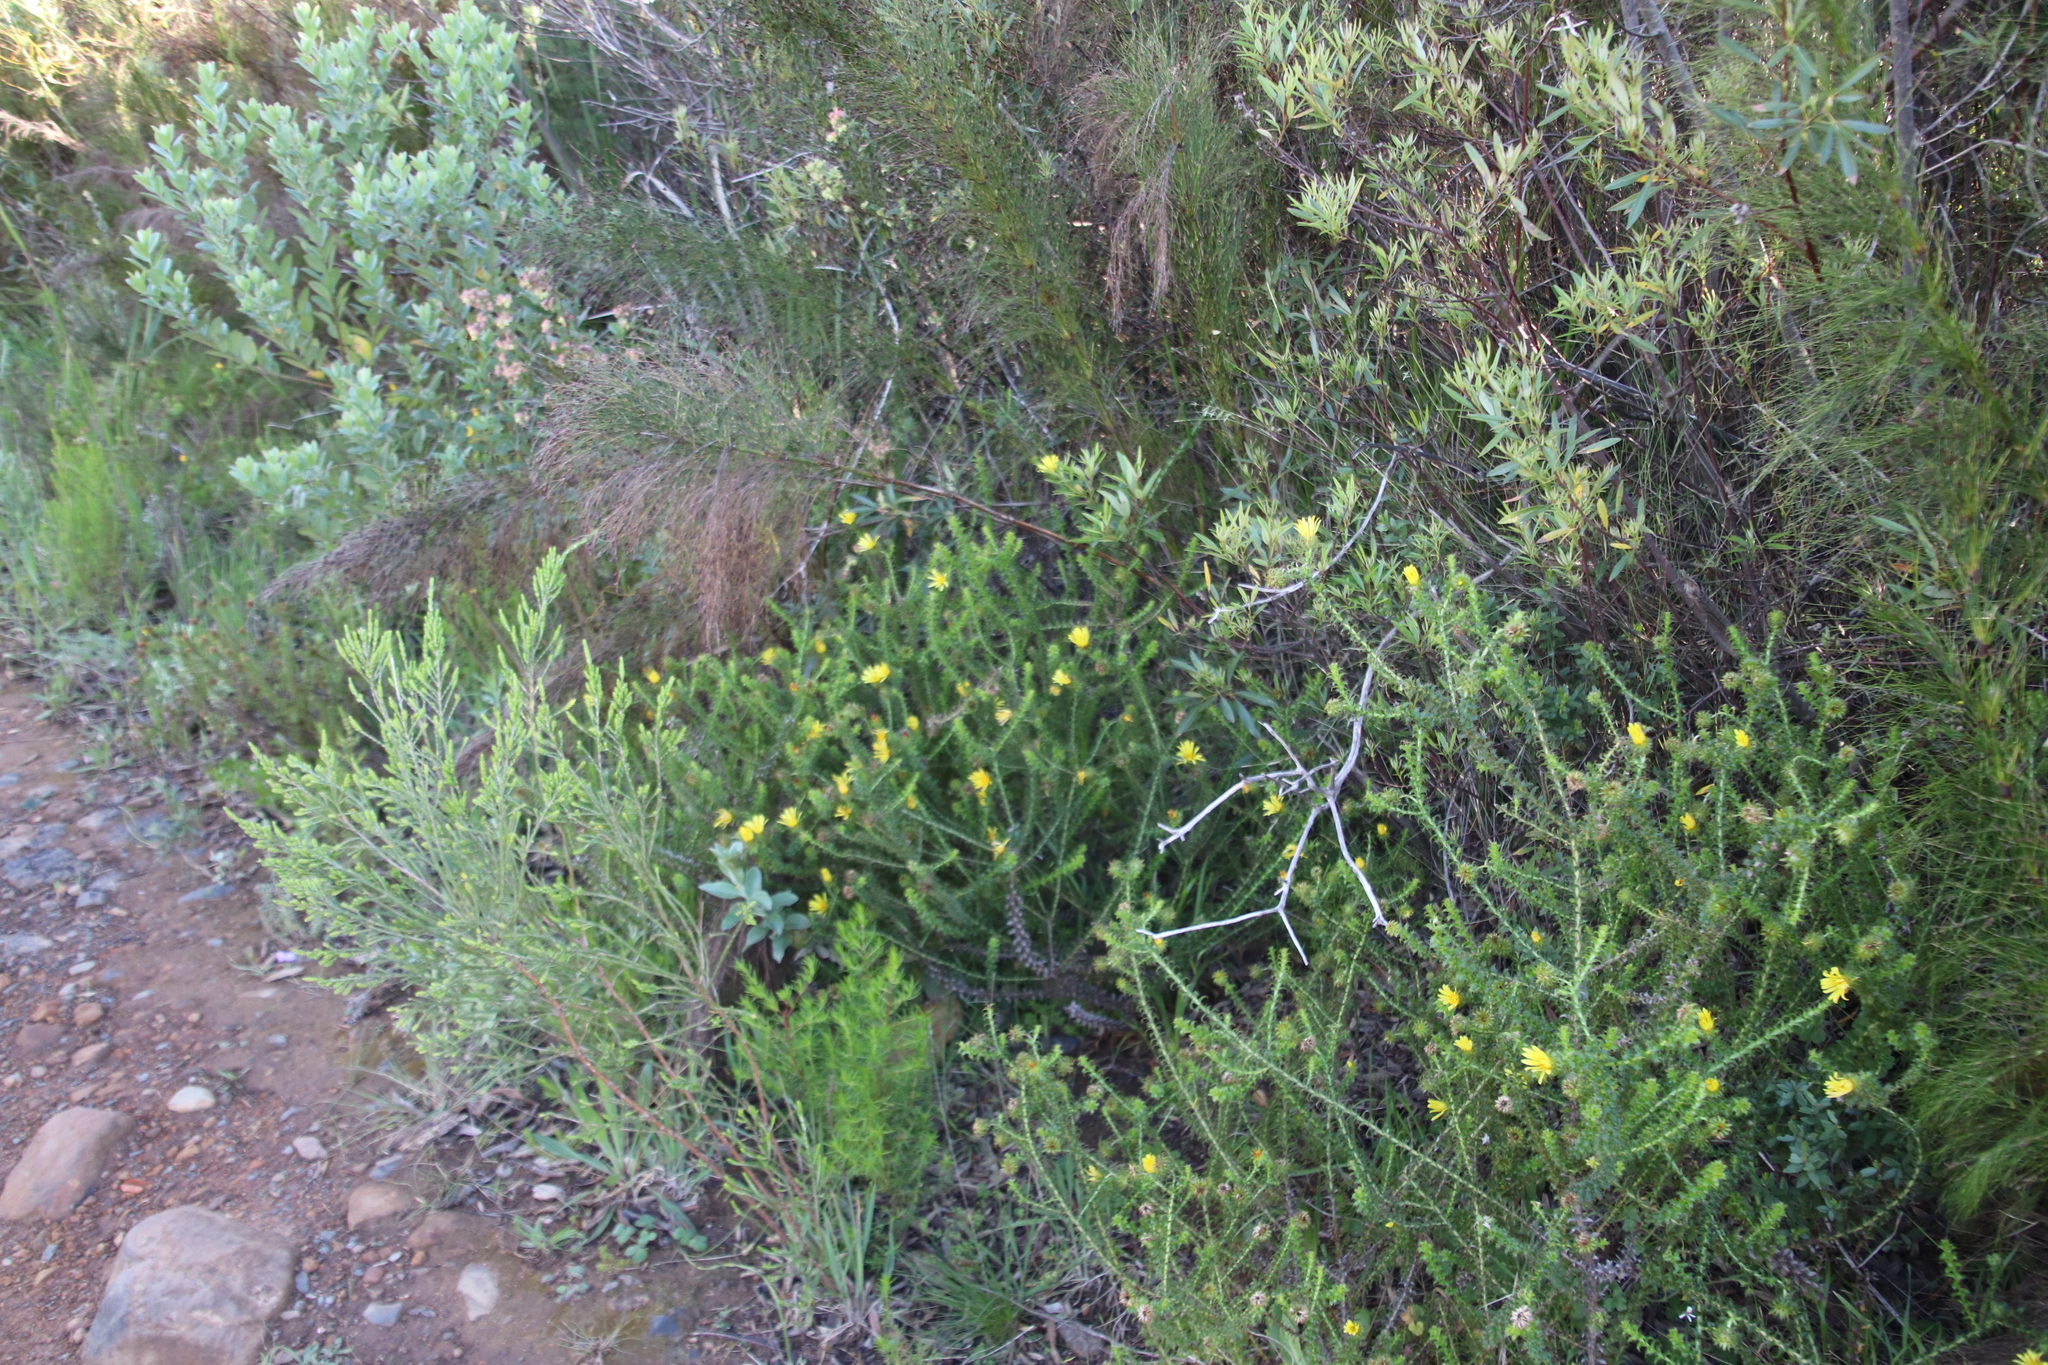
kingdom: Plantae
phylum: Tracheophyta
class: Magnoliopsida
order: Asterales
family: Asteraceae
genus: Cullumia
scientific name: Cullumia setosa
